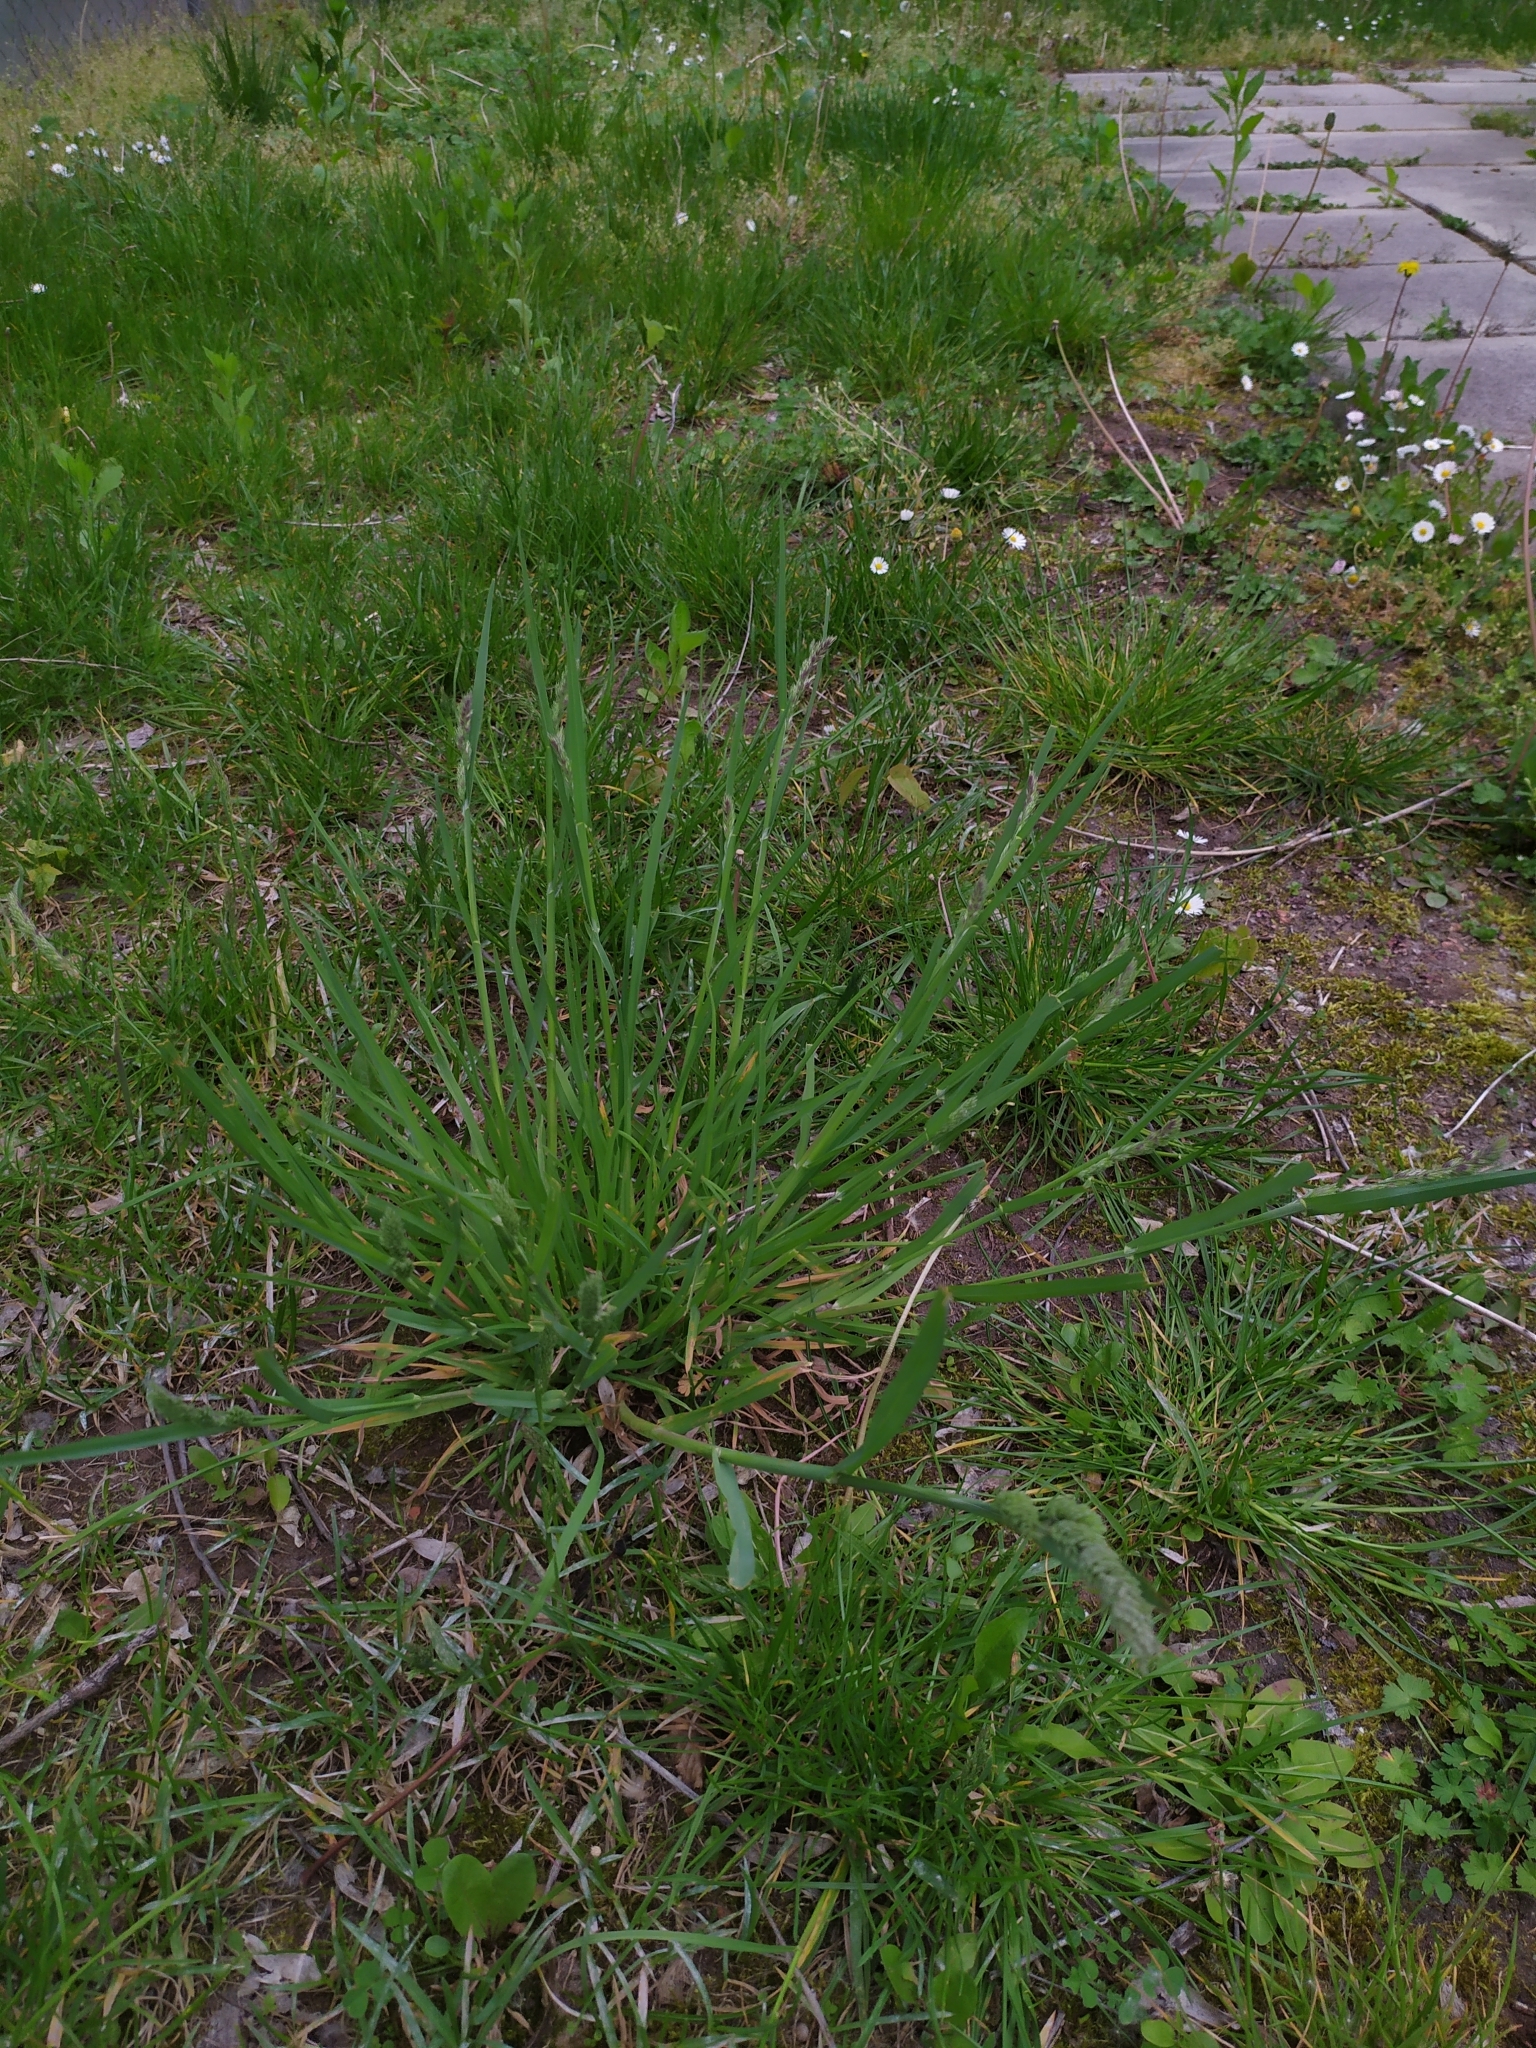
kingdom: Plantae
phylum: Tracheophyta
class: Liliopsida
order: Poales
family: Poaceae
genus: Dactylis
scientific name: Dactylis glomerata
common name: Orchardgrass
